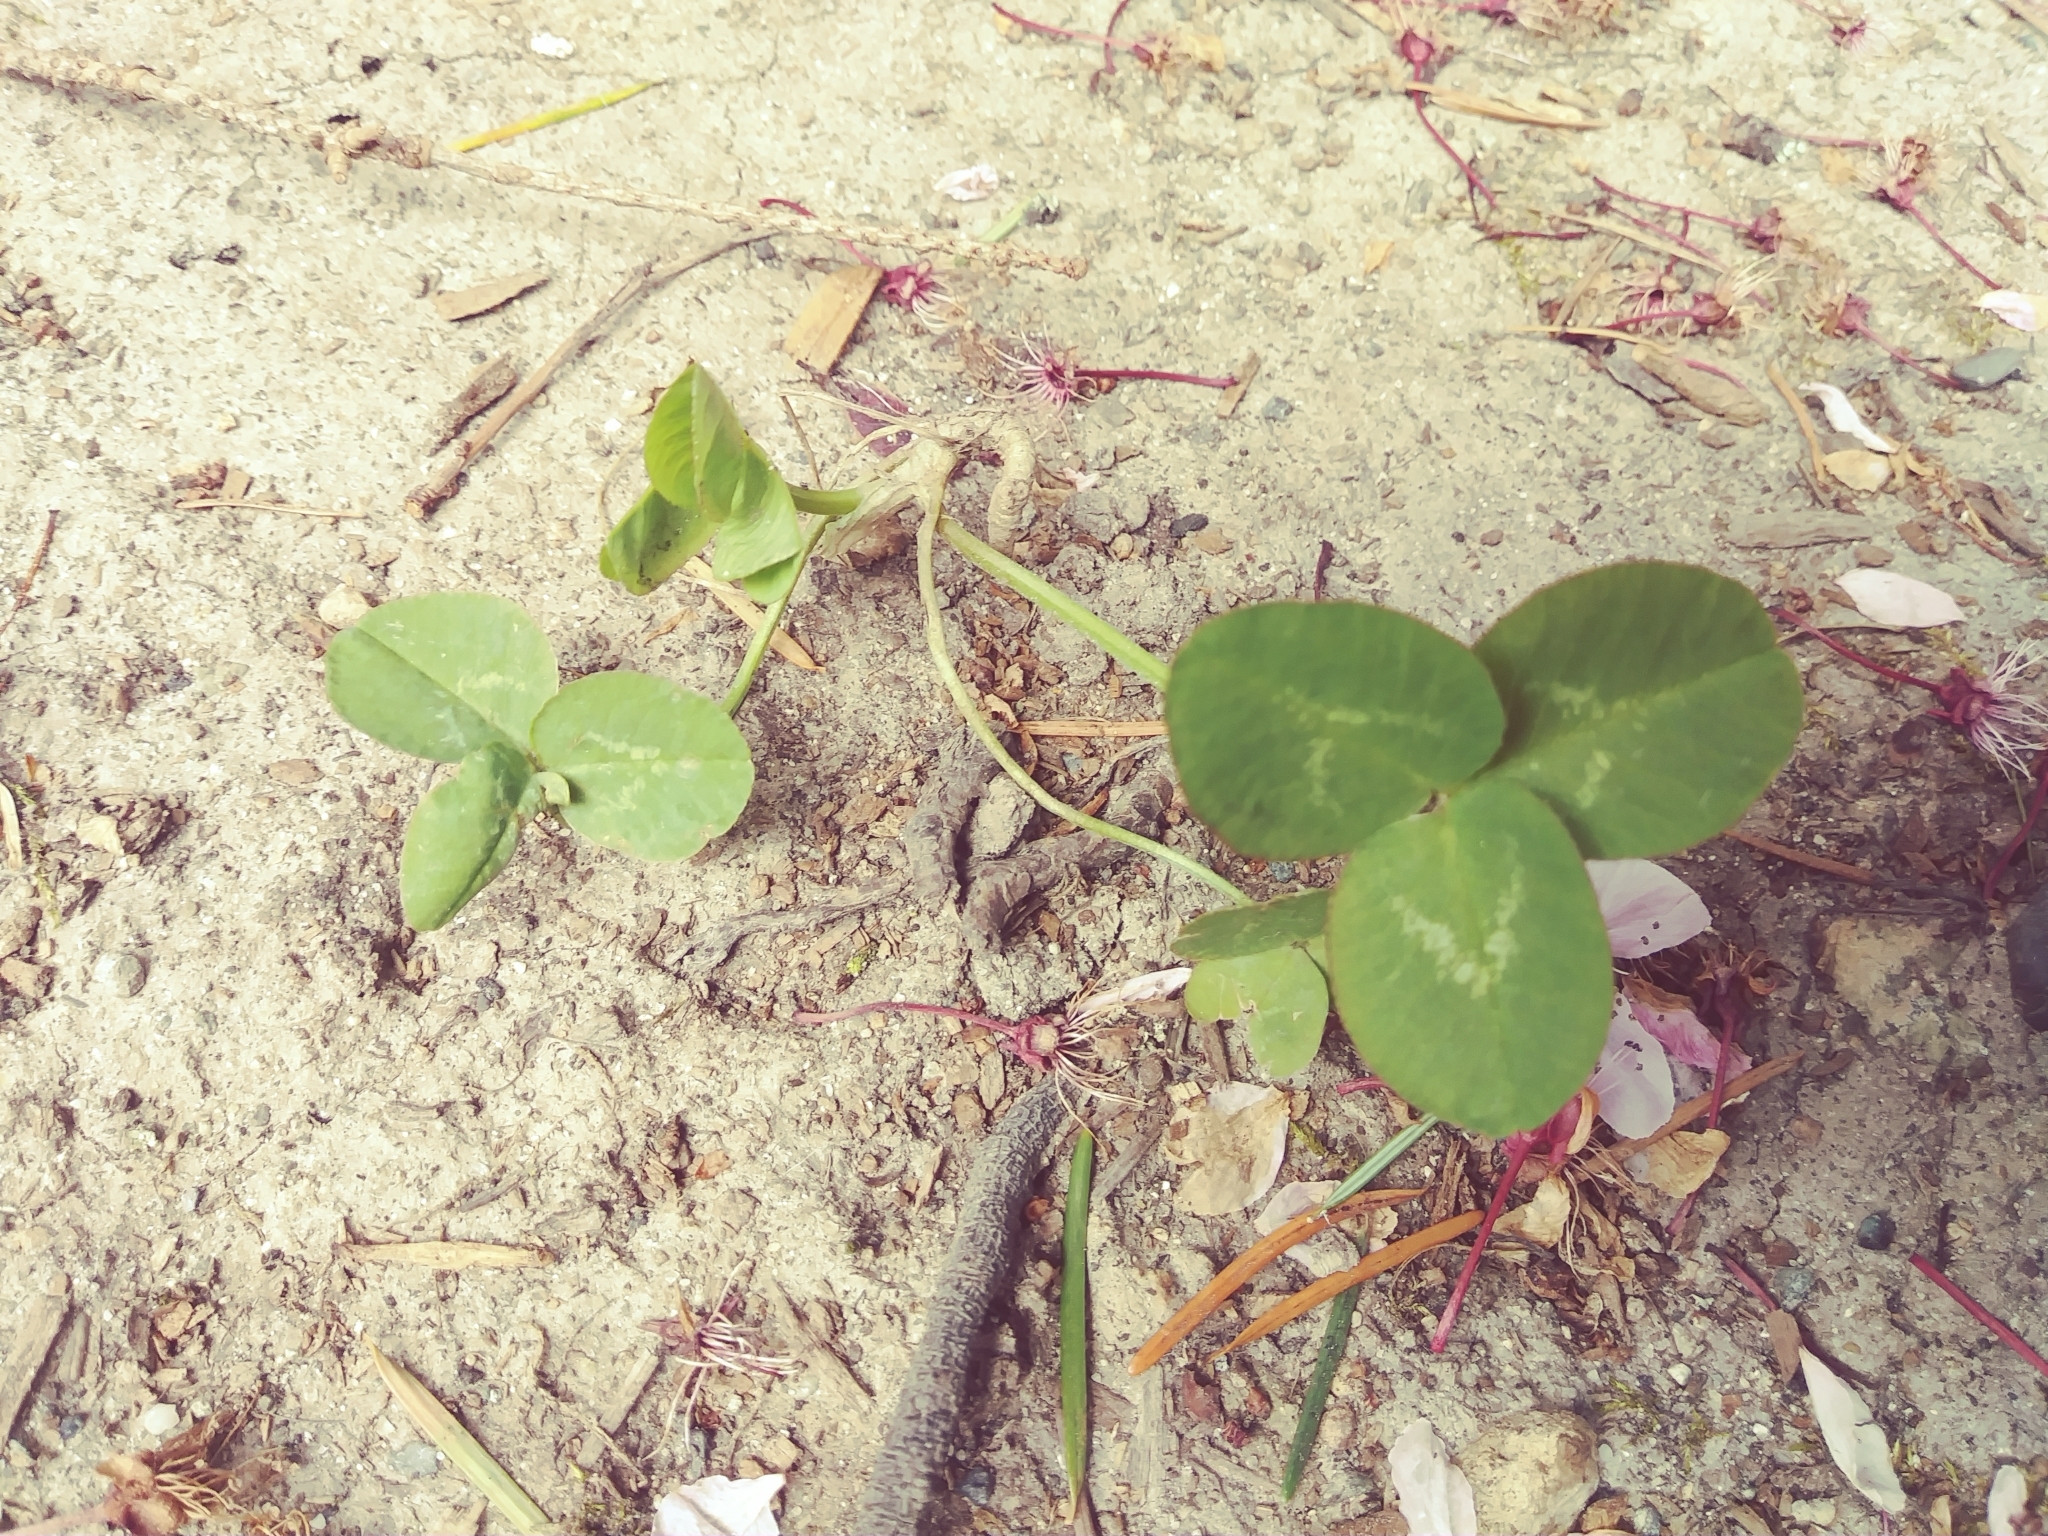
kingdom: Plantae
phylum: Tracheophyta
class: Magnoliopsida
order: Fabales
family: Fabaceae
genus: Trifolium
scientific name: Trifolium repens
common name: White clover
